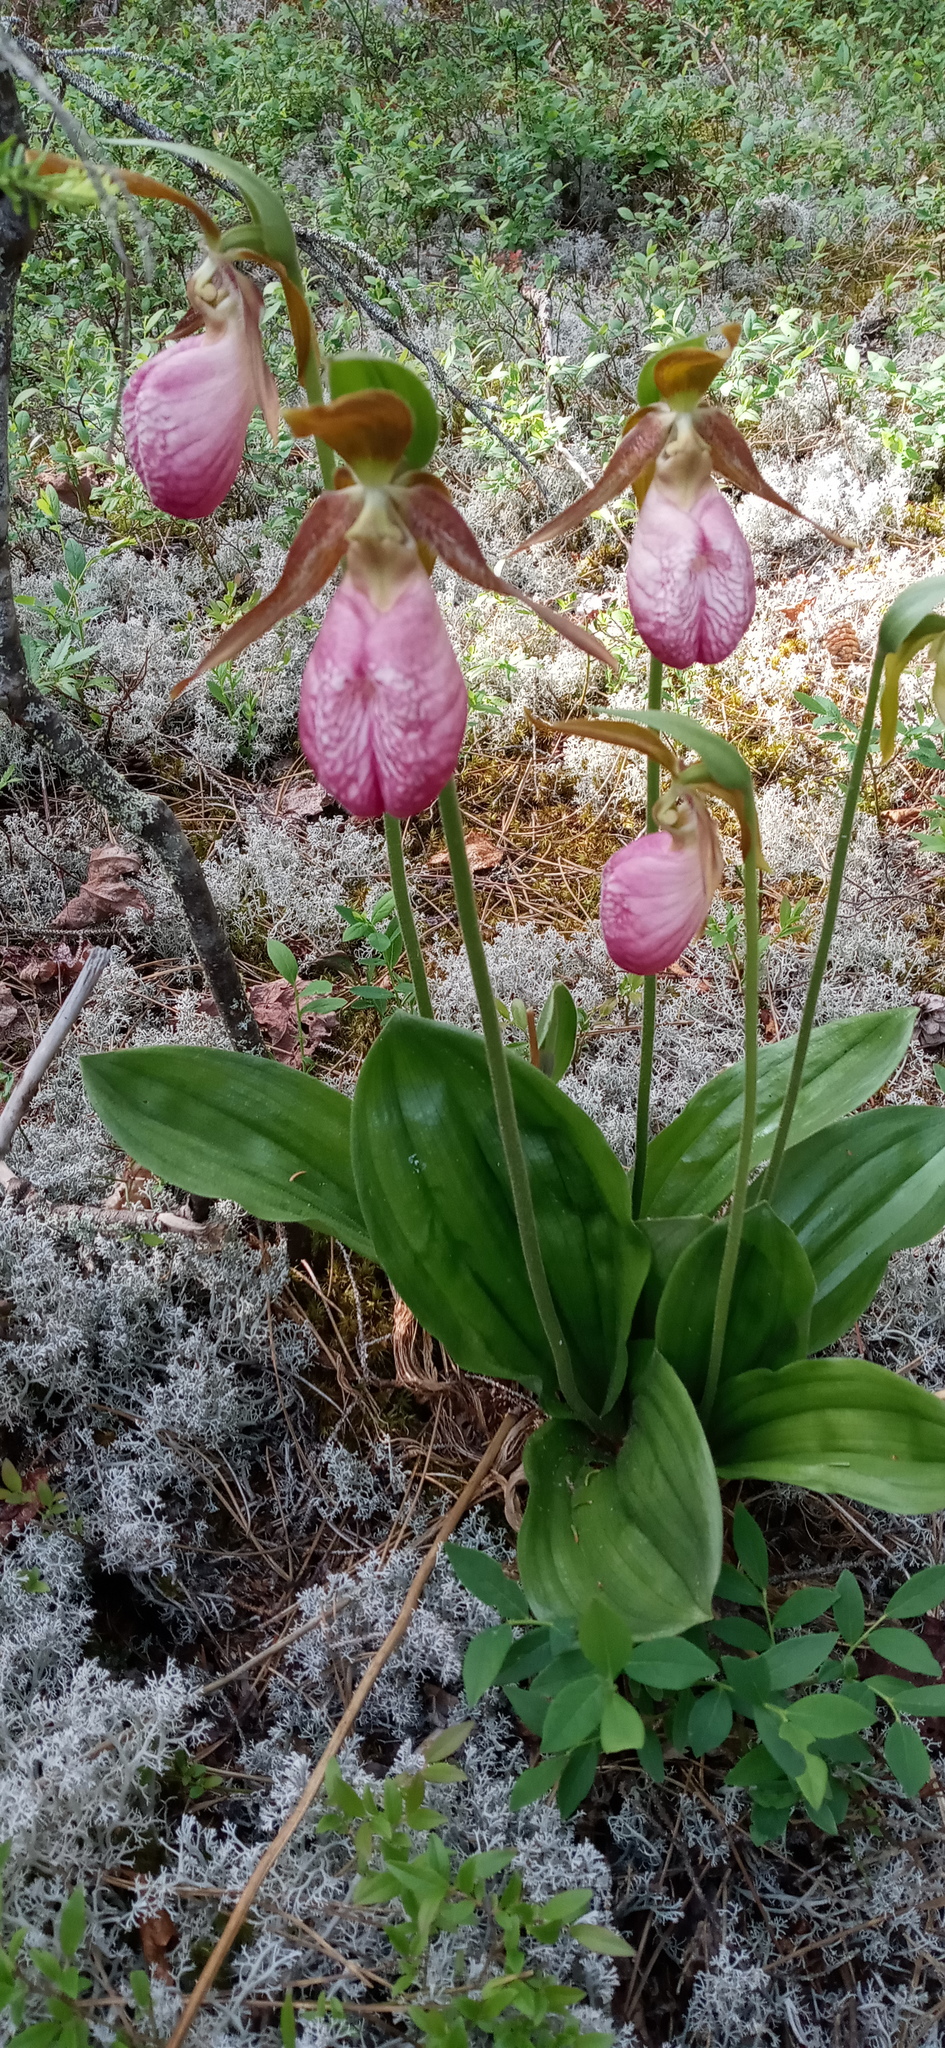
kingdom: Plantae
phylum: Tracheophyta
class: Liliopsida
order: Asparagales
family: Orchidaceae
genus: Cypripedium
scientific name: Cypripedium acaule
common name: Pink lady's-slipper
